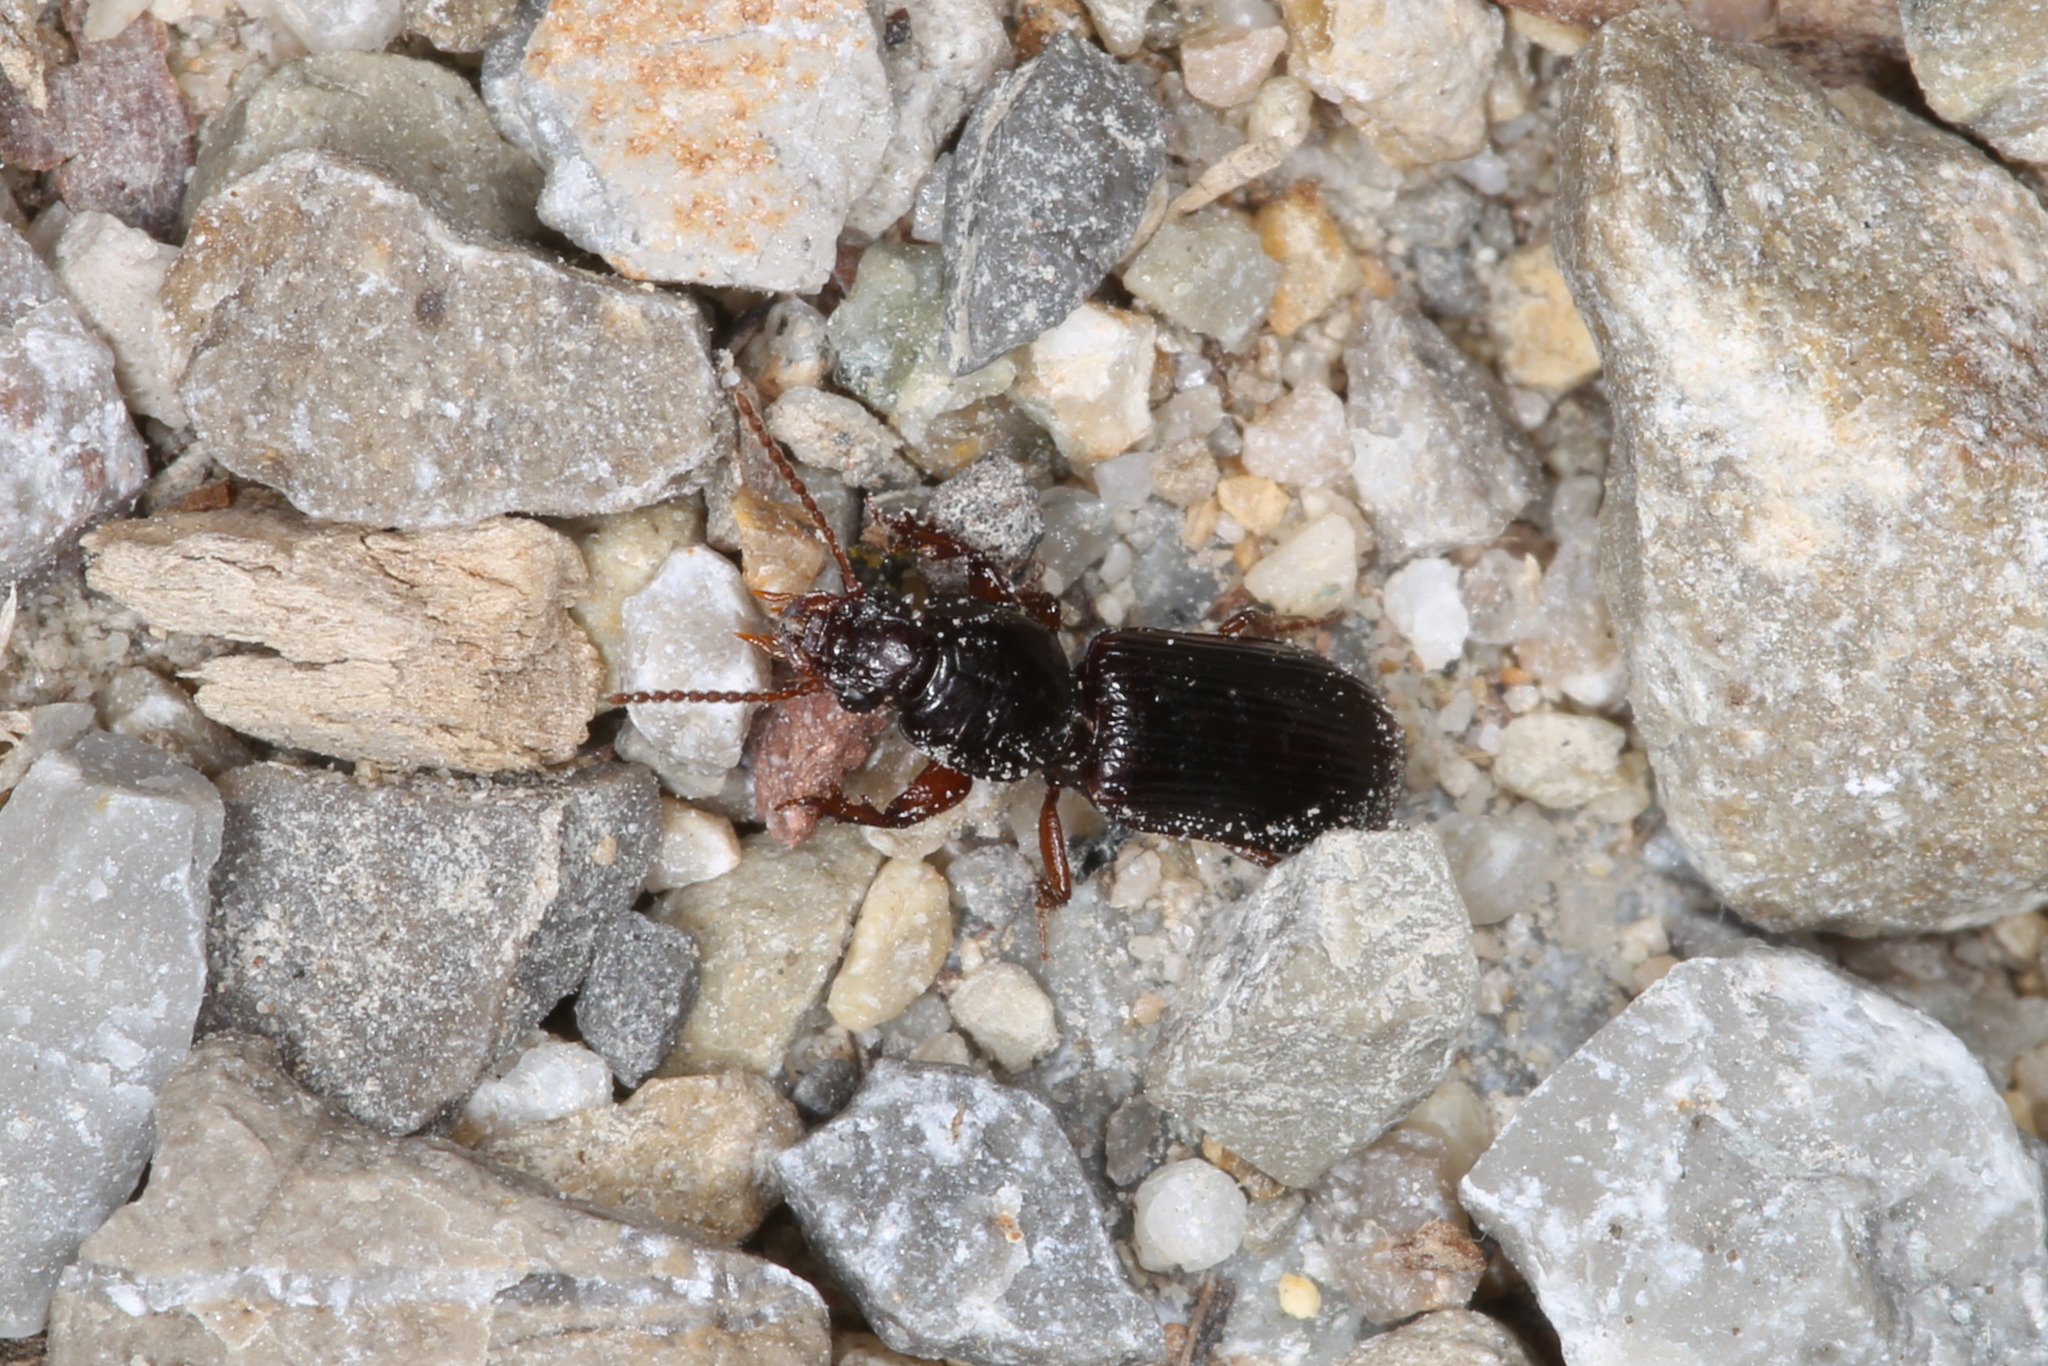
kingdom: Animalia
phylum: Arthropoda
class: Insecta
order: Coleoptera
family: Carabidae
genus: Clivina
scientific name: Clivina fossor
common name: Digging pedunculate ground beetle
